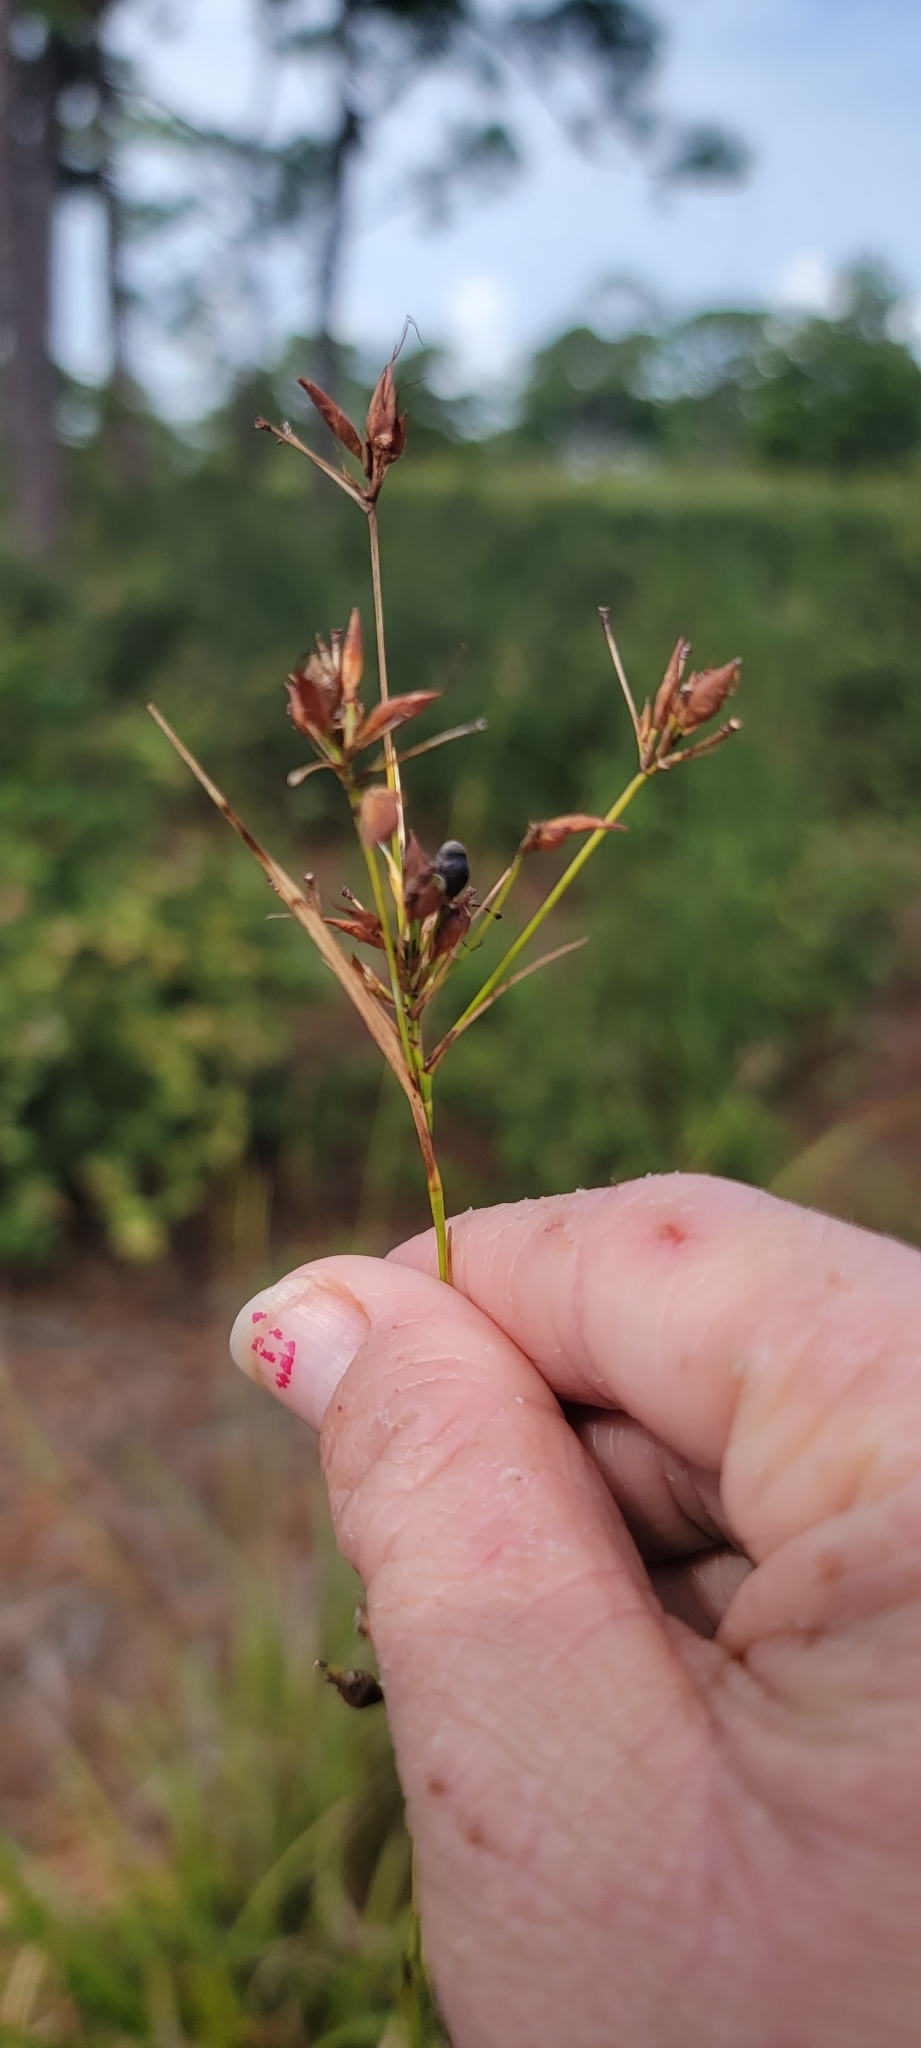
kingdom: Plantae
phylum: Tracheophyta
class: Liliopsida
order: Poales
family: Cyperaceae
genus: Rhynchospora
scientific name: Rhynchospora megalocarpa
